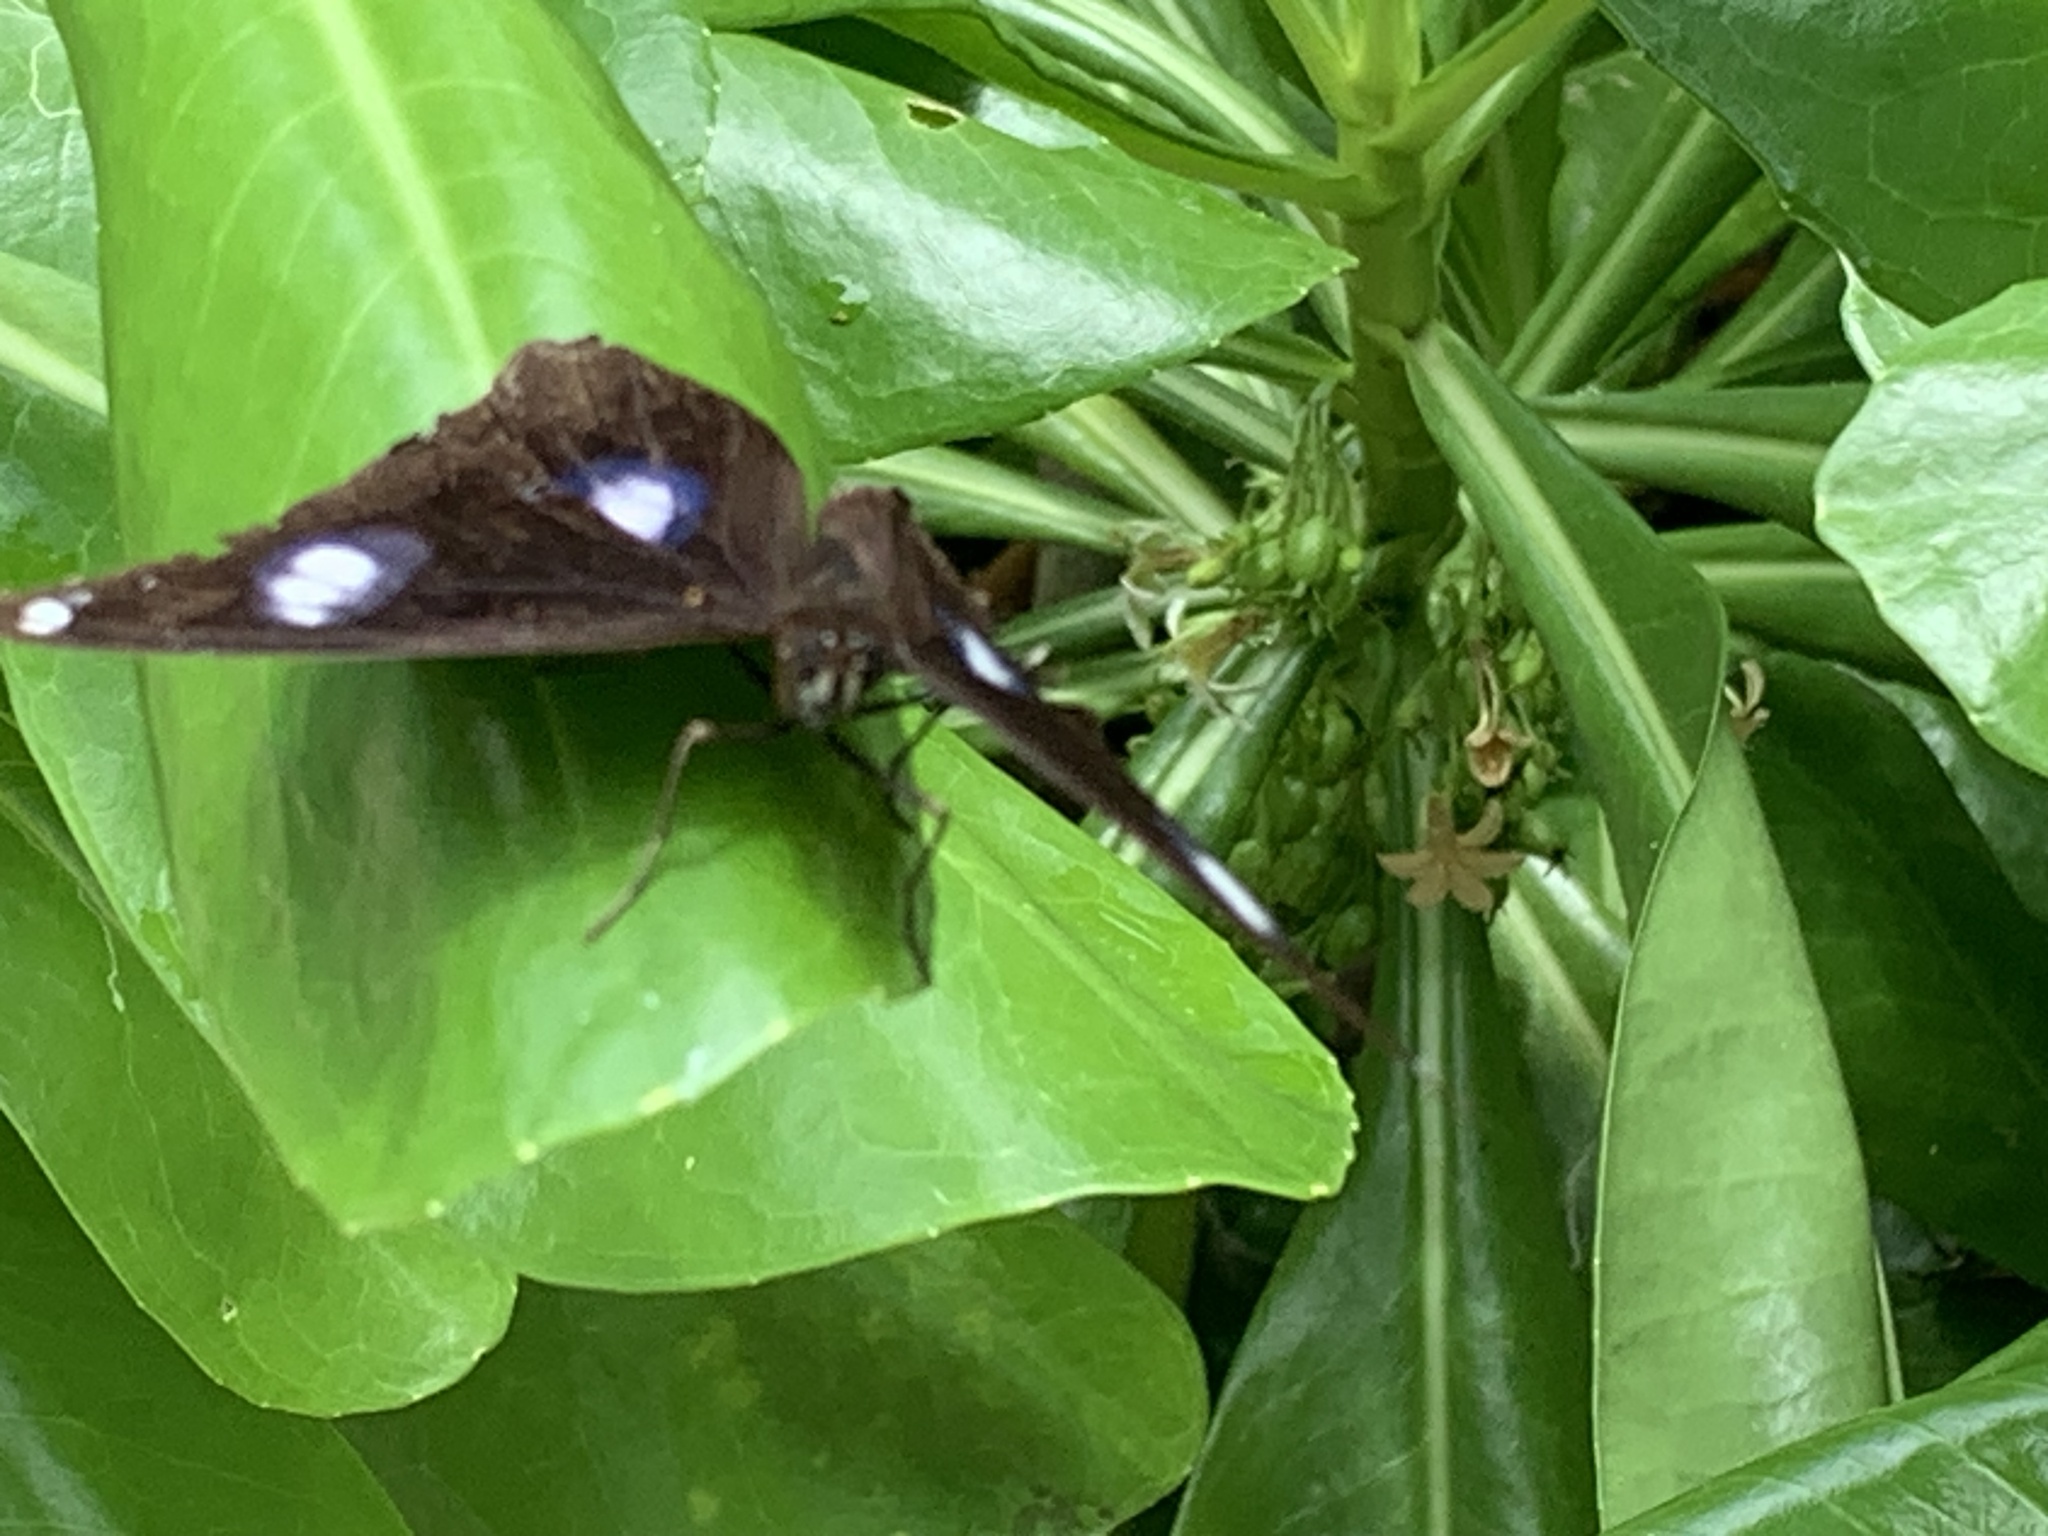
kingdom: Animalia
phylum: Arthropoda
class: Insecta
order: Lepidoptera
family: Nymphalidae
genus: Hypolimnas
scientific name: Hypolimnas bolina
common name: Great eggfly
